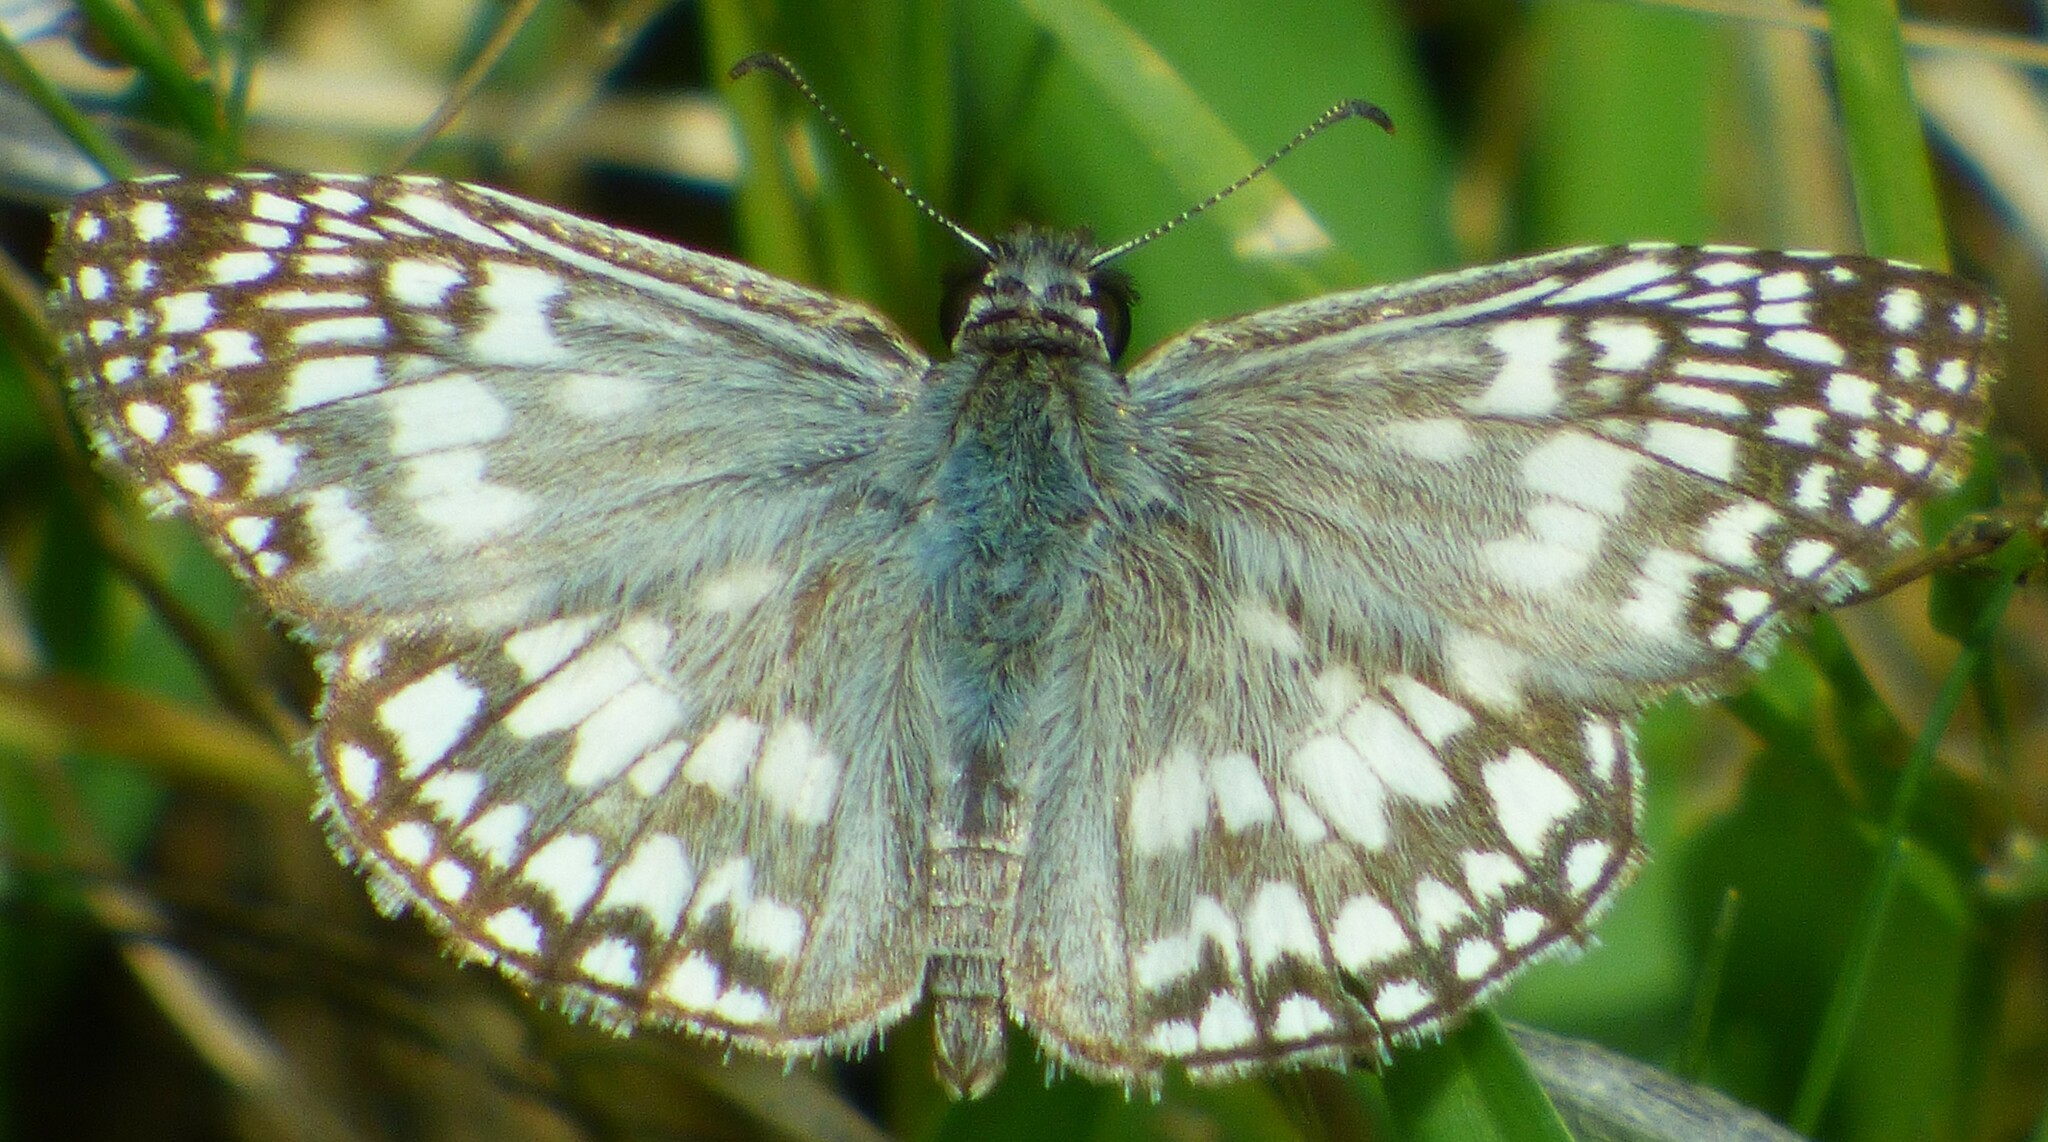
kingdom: Animalia
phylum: Arthropoda
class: Insecta
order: Lepidoptera
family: Hesperiidae
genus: Pyrgus
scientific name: Pyrgus oileus
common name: Tropical checkered-skipper
